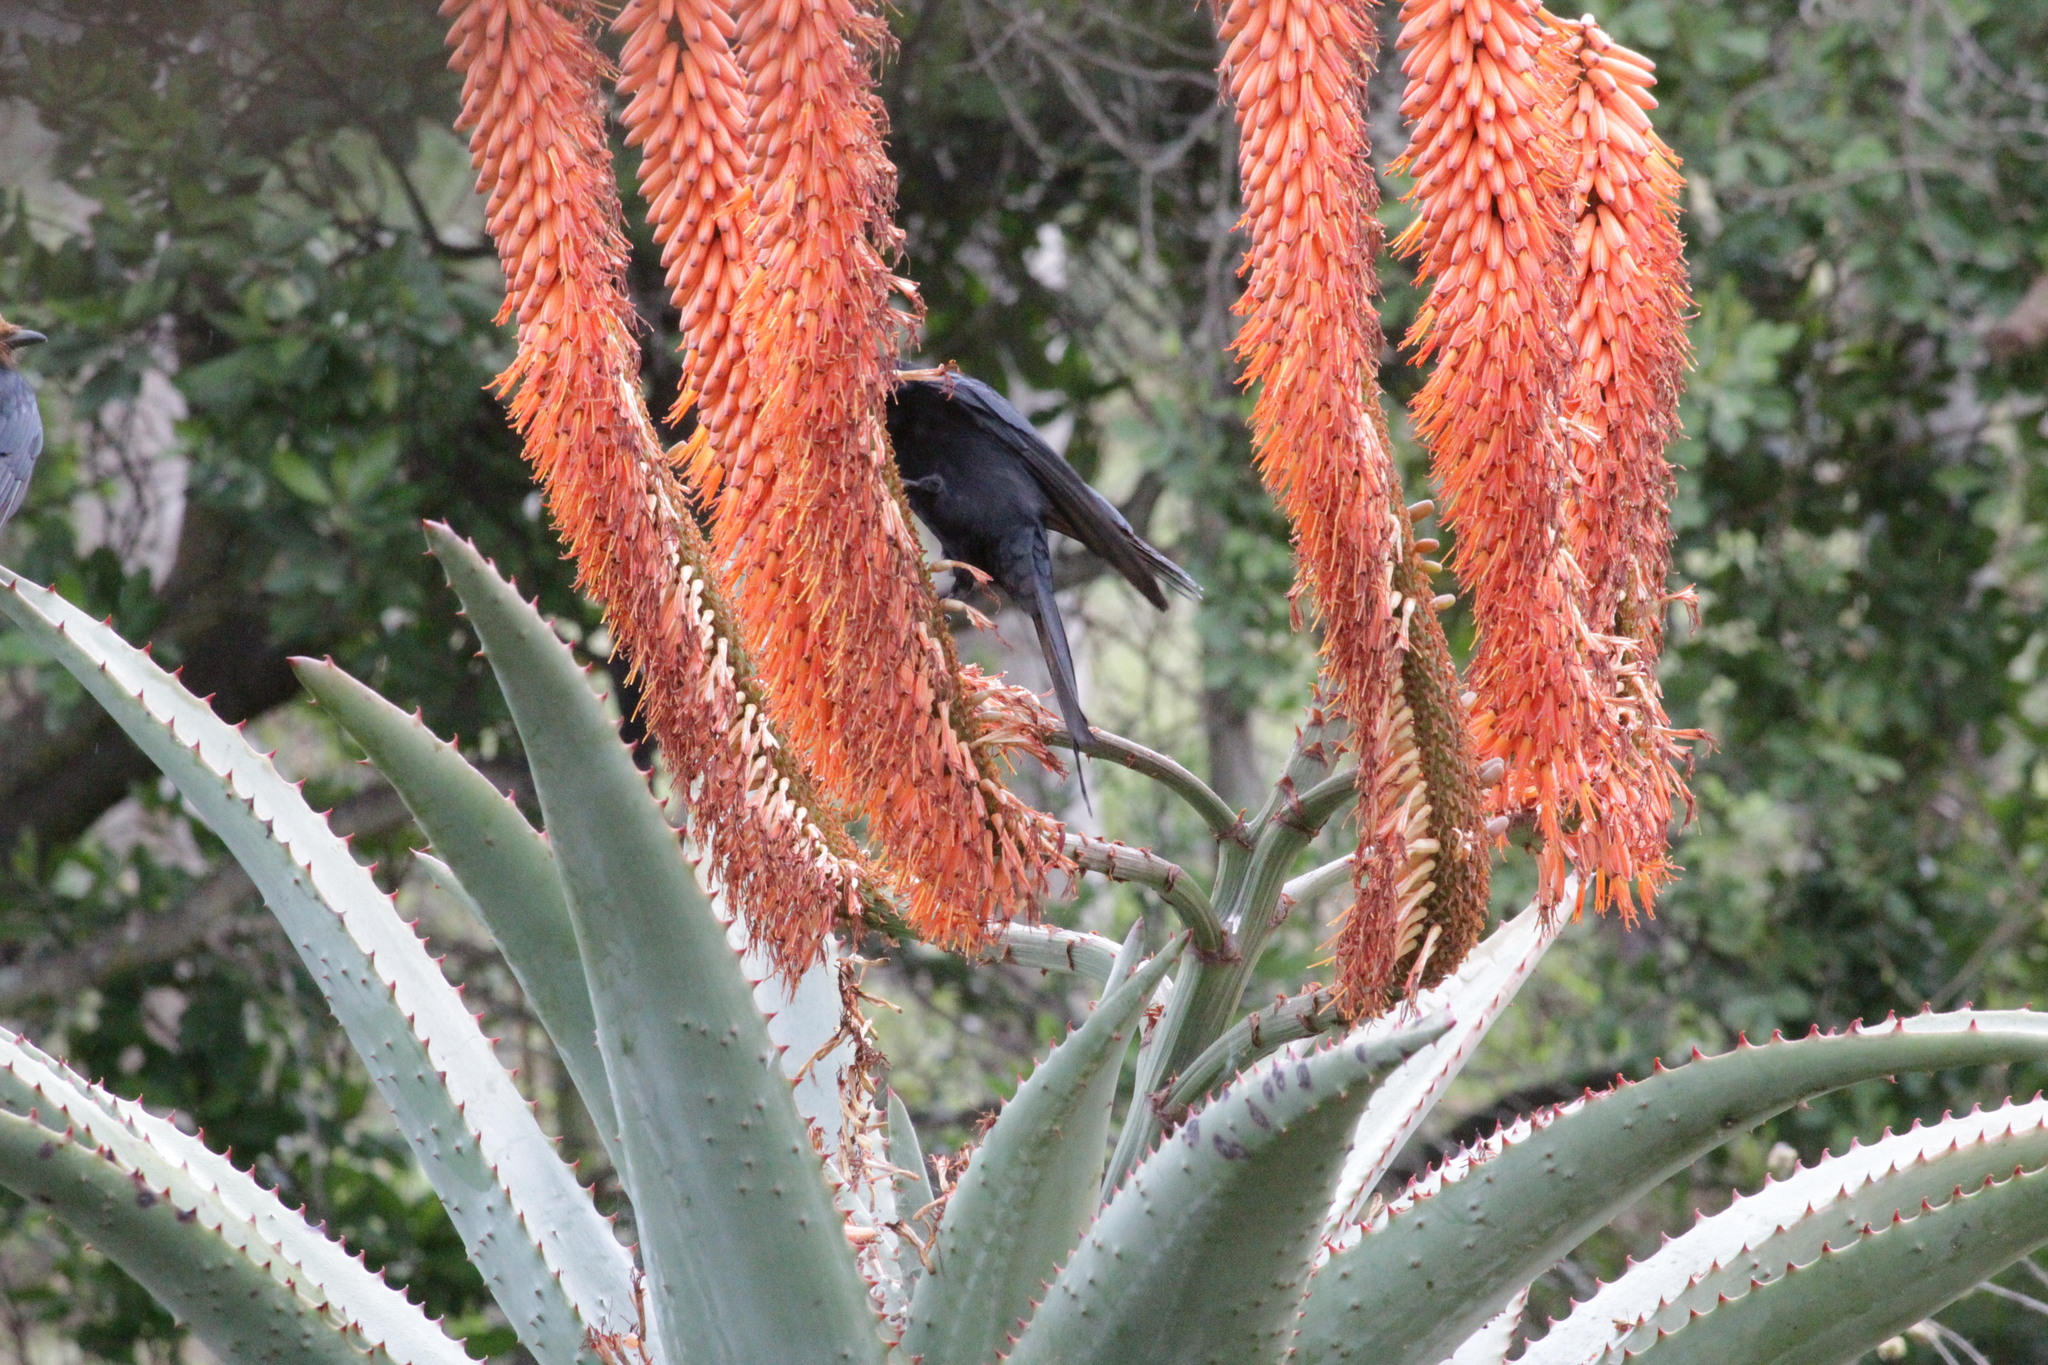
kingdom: Animalia
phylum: Chordata
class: Aves
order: Passeriformes
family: Dicruridae
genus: Dicrurus
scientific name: Dicrurus adsimilis
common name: Fork-tailed drongo
